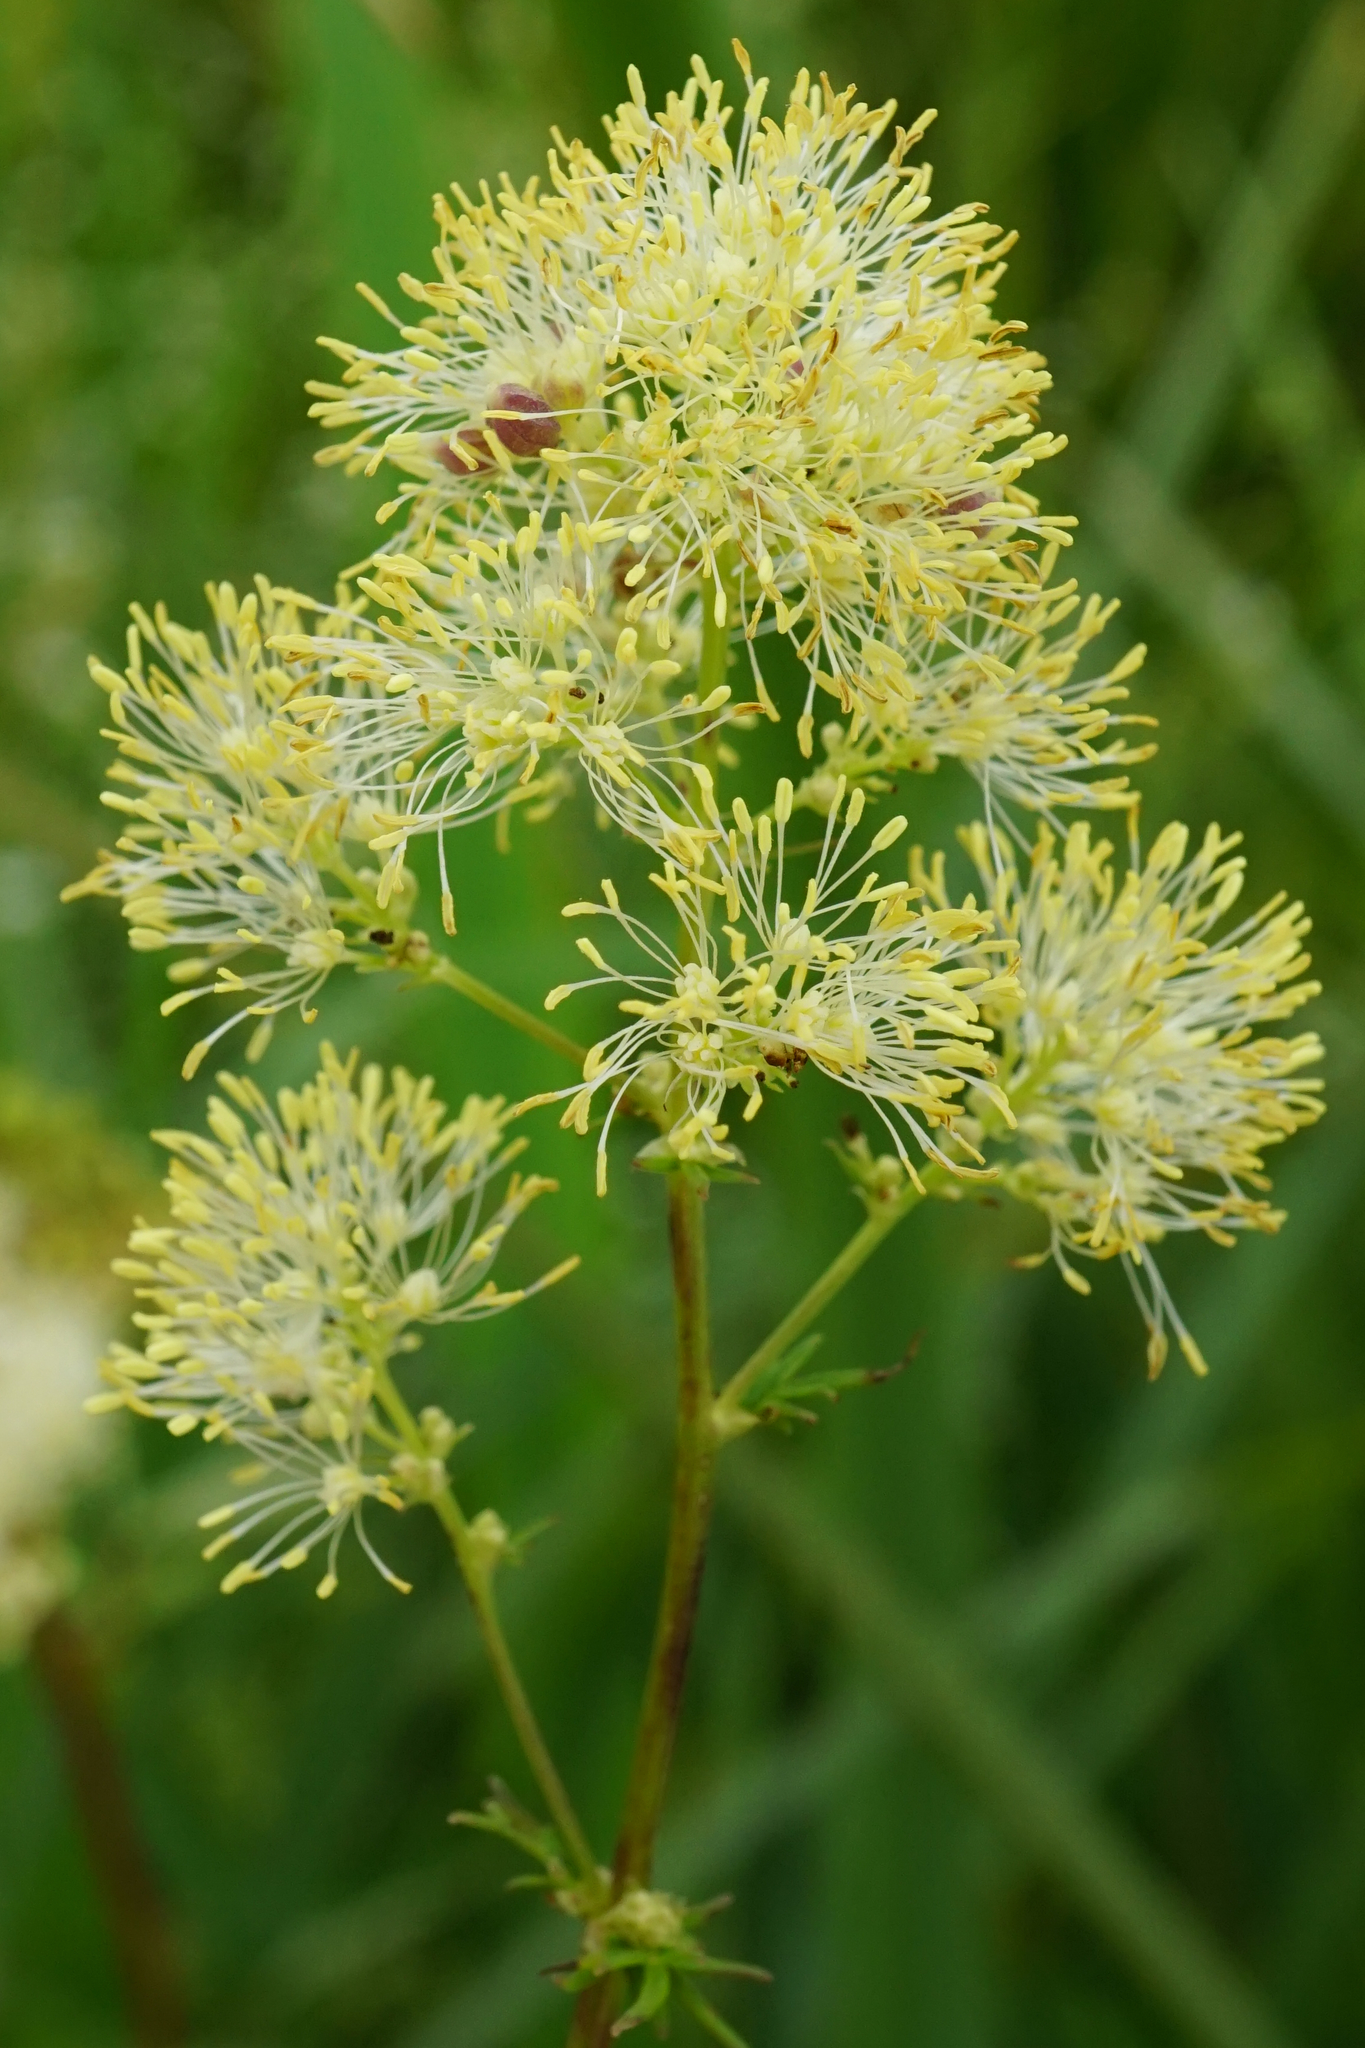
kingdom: Plantae
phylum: Tracheophyta
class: Magnoliopsida
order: Ranunculales
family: Ranunculaceae
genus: Thalictrum
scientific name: Thalictrum lucidum
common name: Shining meadow-rue
